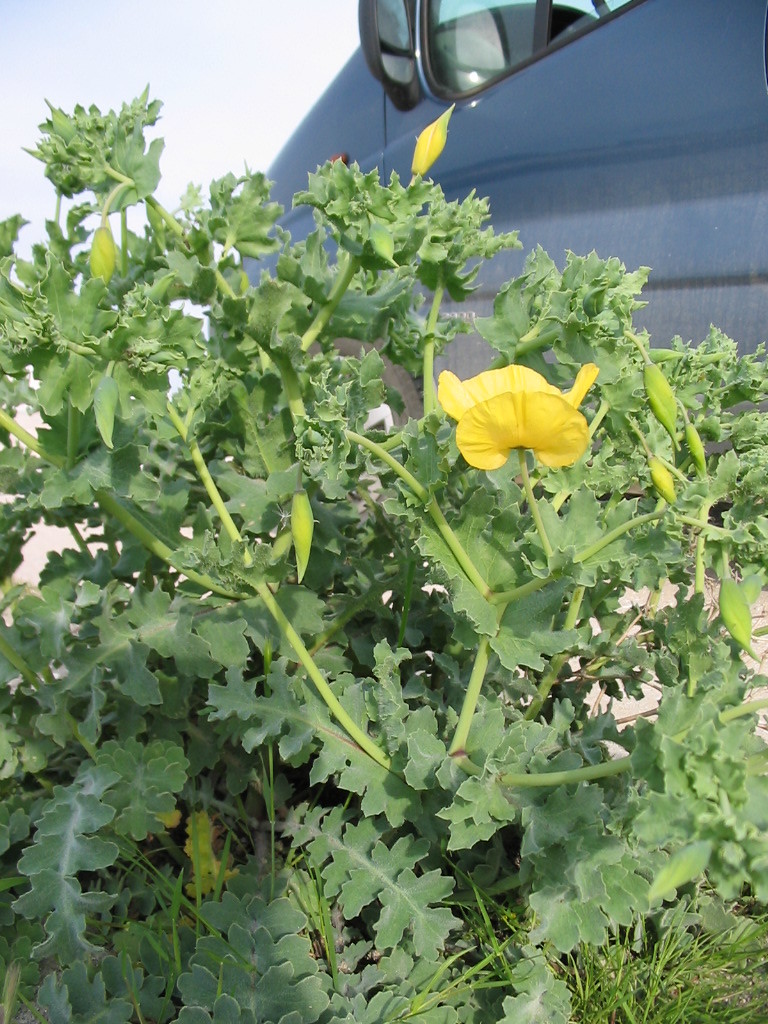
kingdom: Plantae
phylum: Tracheophyta
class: Magnoliopsida
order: Ranunculales
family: Papaveraceae
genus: Glaucium
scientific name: Glaucium flavum
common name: Yellow horned-poppy
